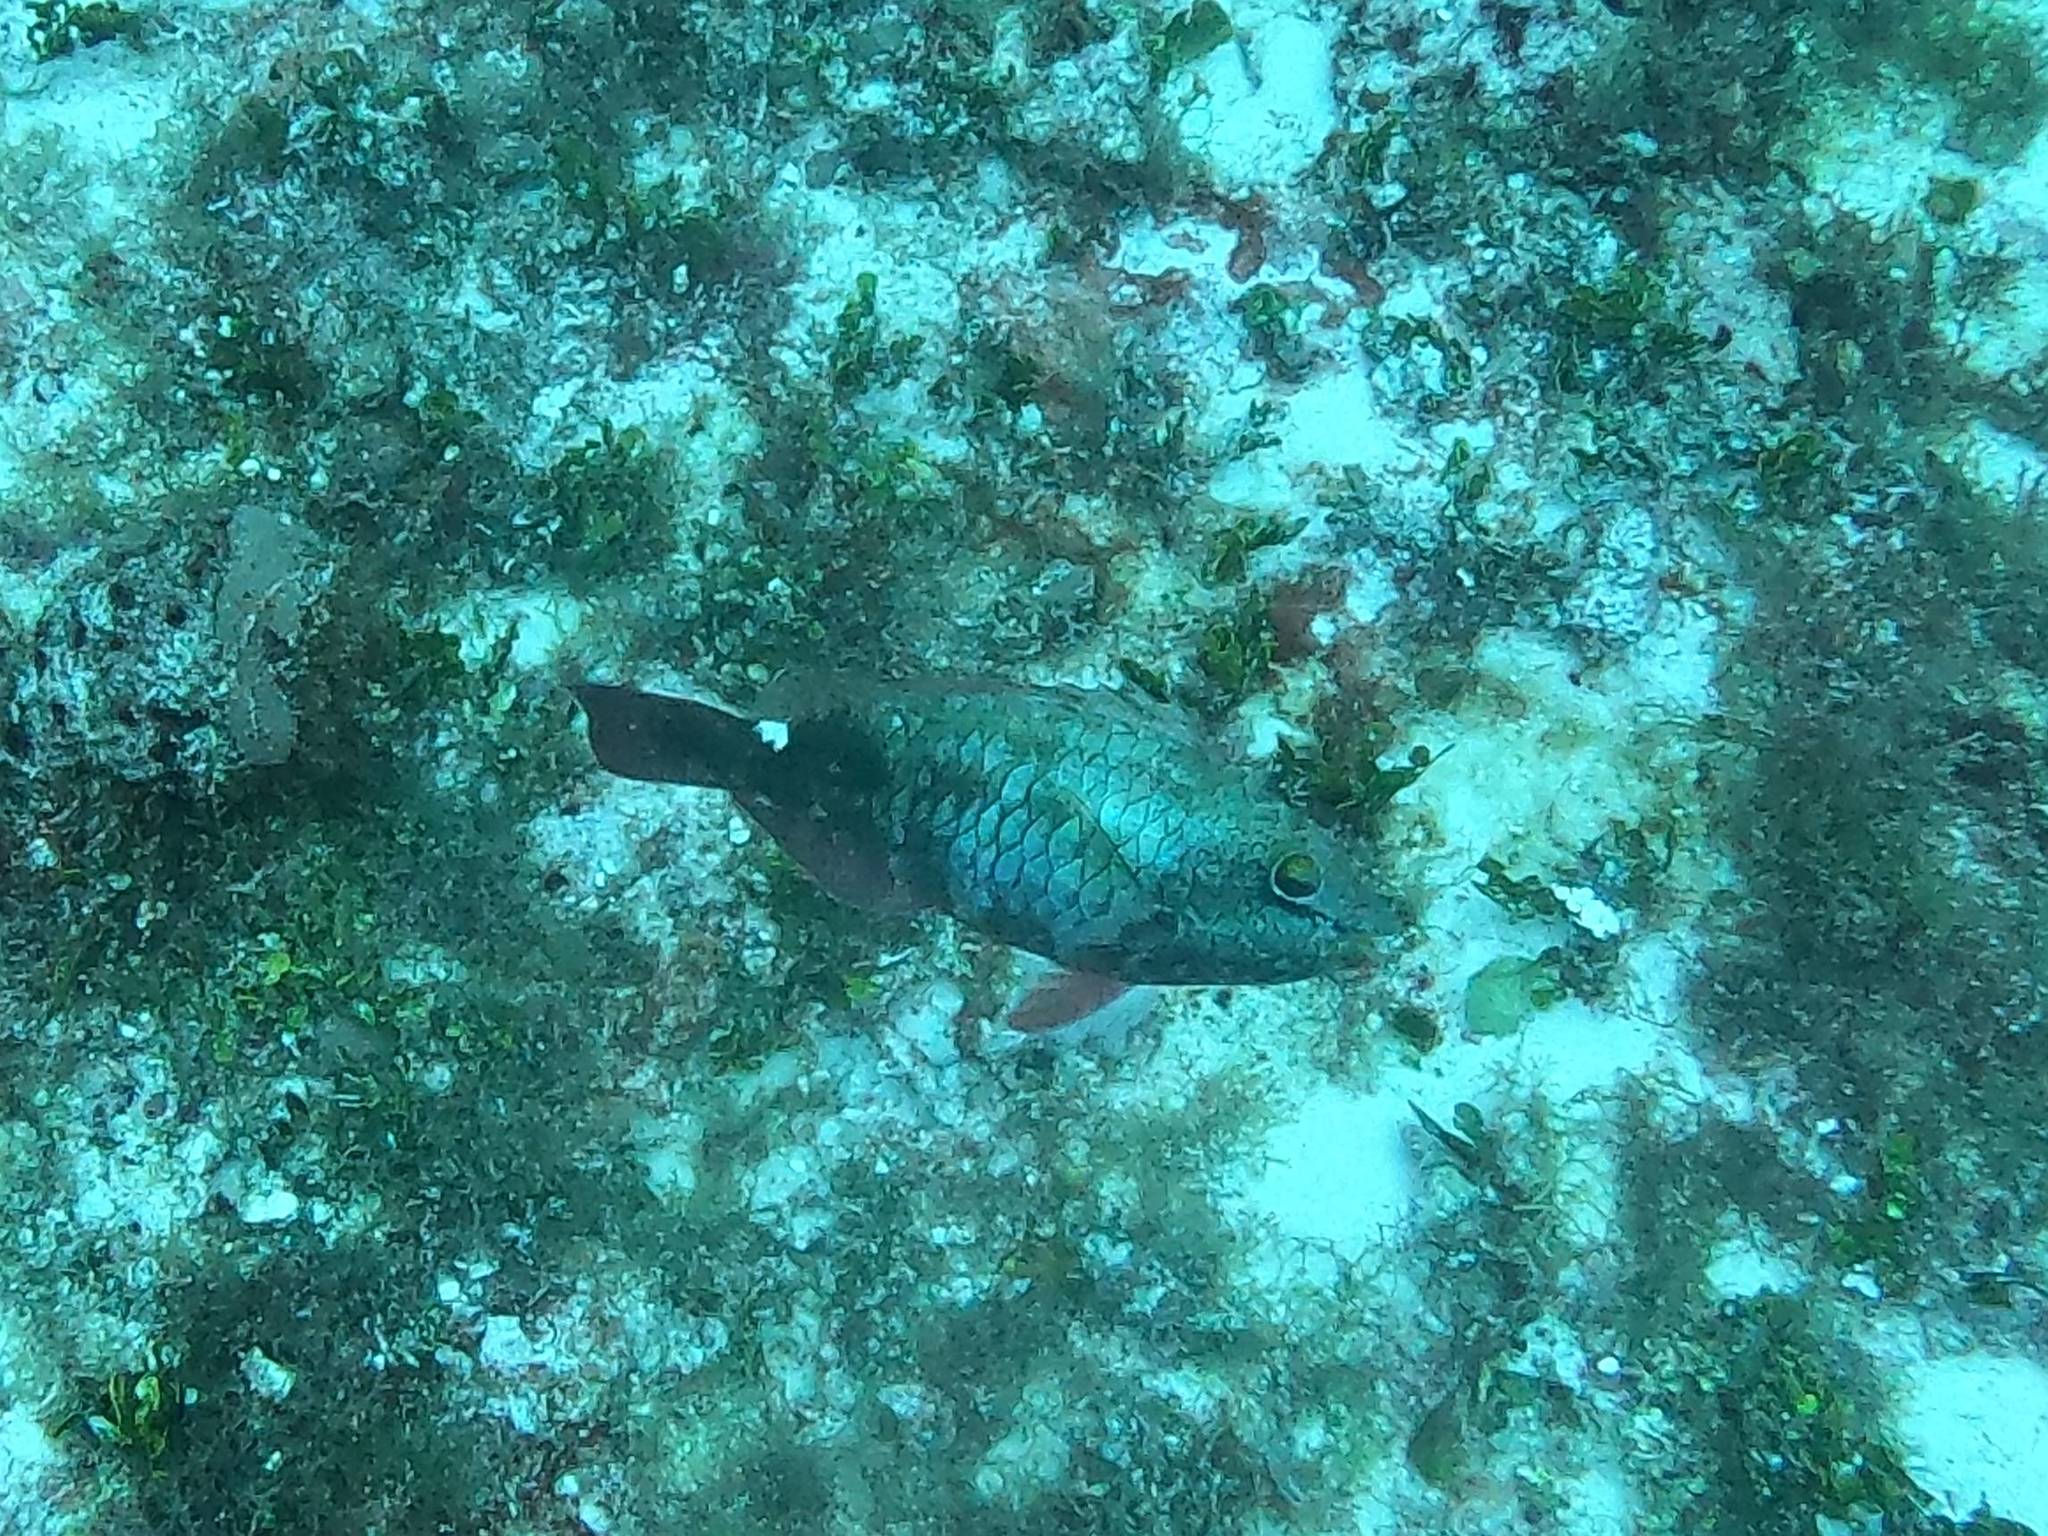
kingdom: Animalia
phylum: Chordata
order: Perciformes
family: Scaridae
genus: Sparisoma
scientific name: Sparisoma aurofrenatum
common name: Redband parrotfish
